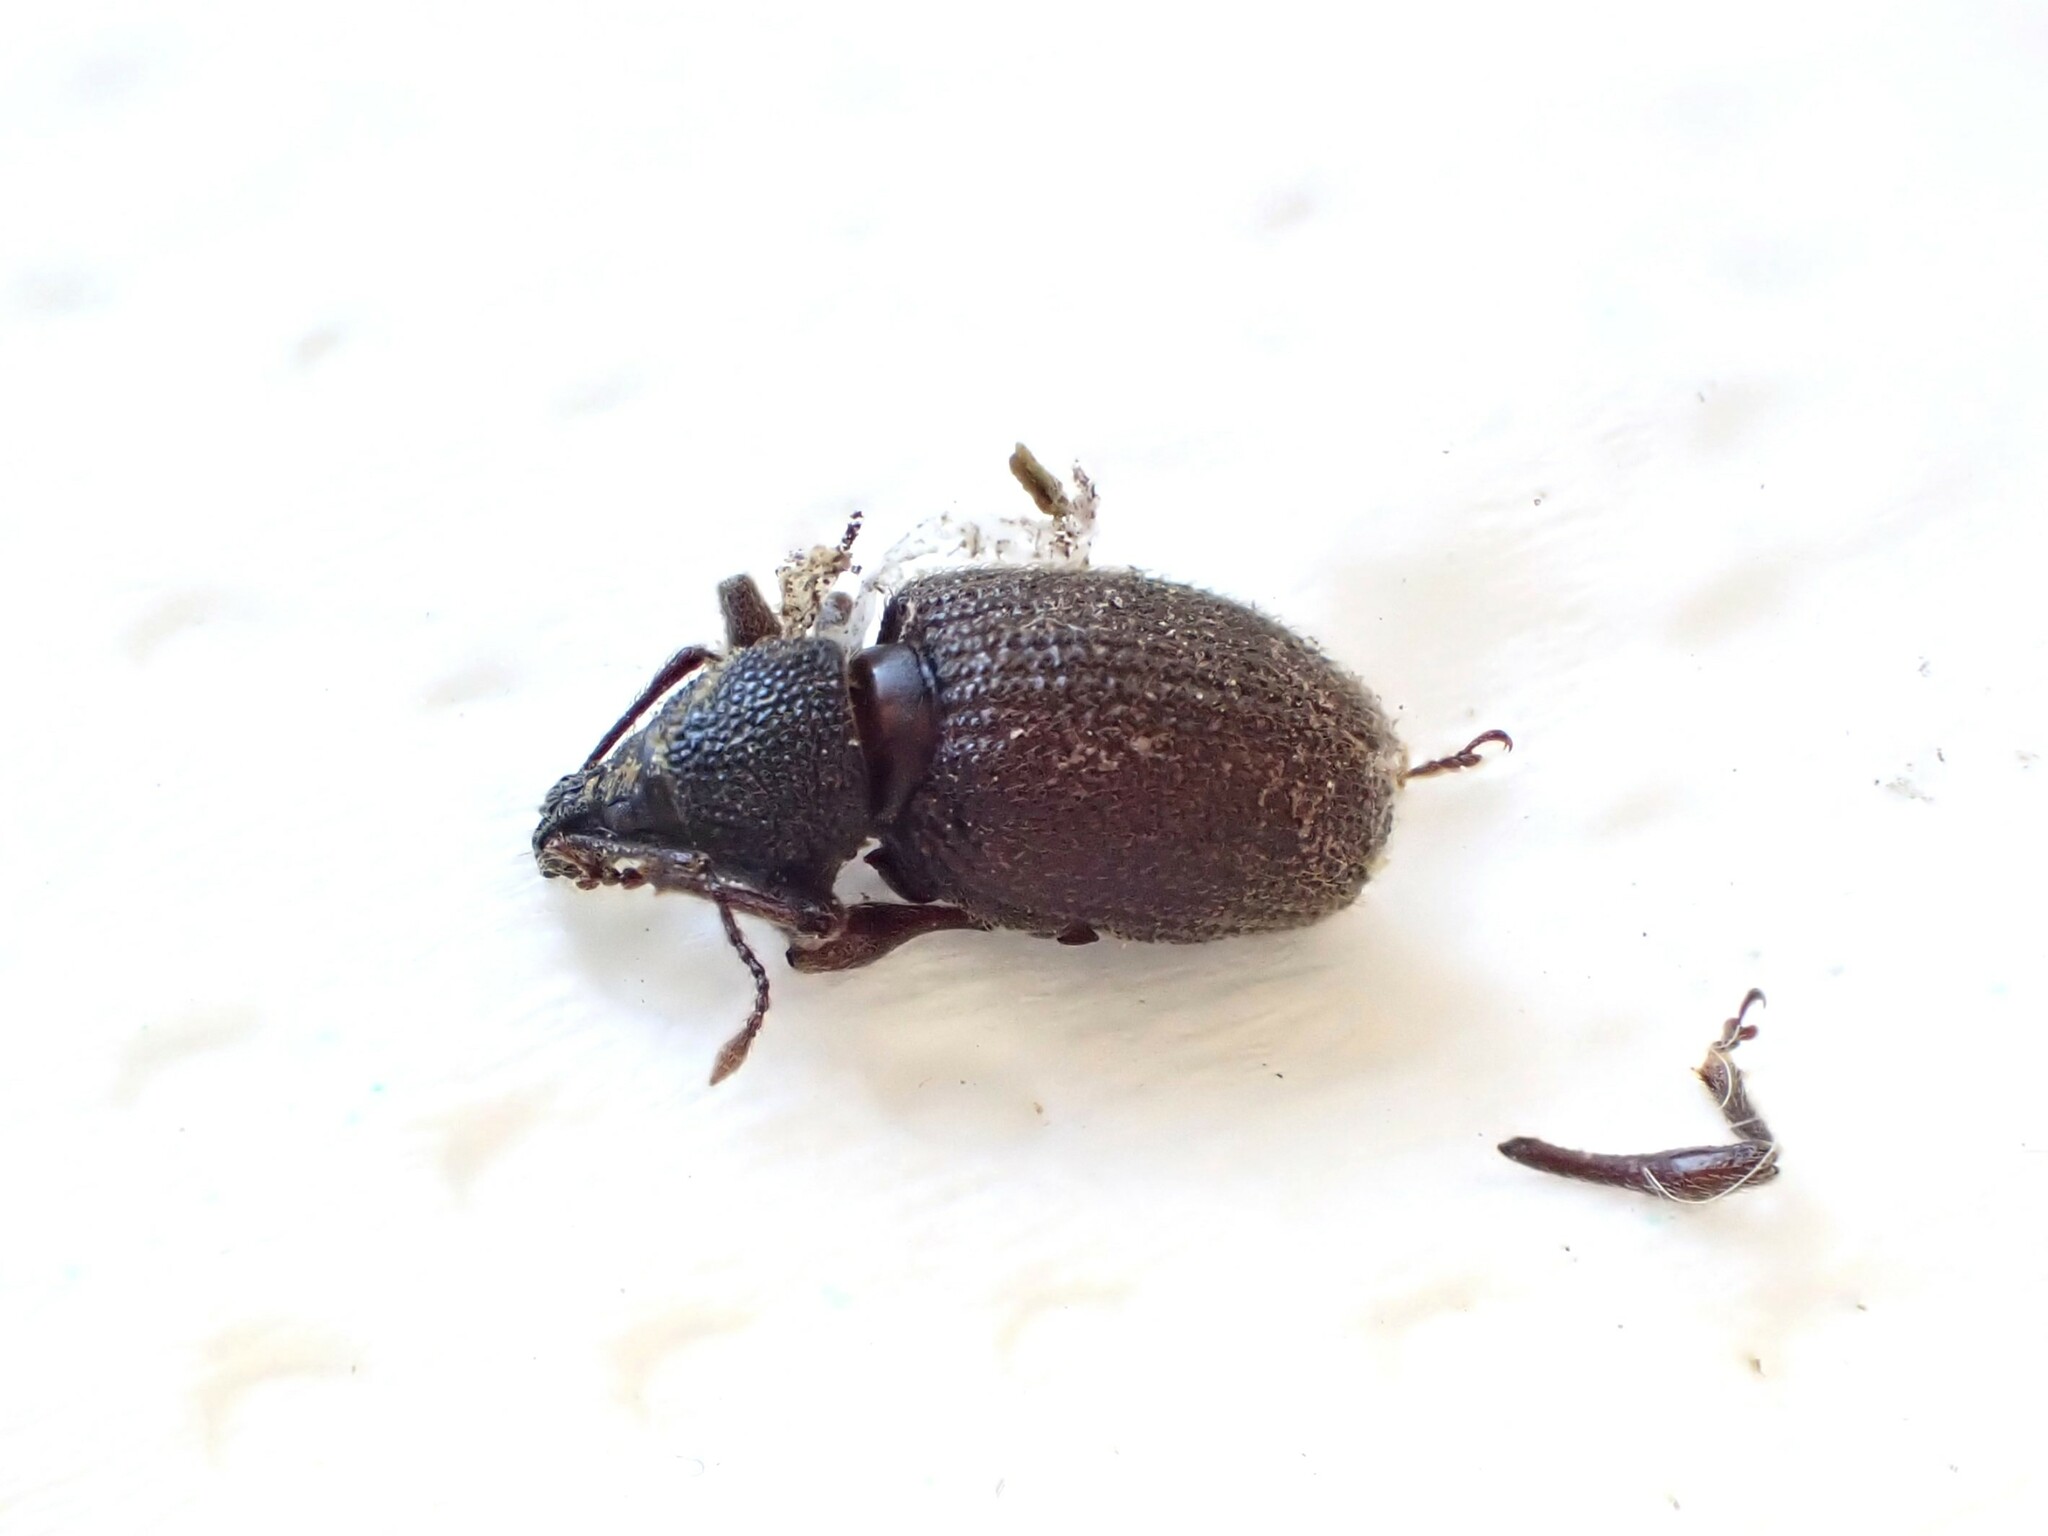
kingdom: Animalia
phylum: Arthropoda
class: Insecta
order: Coleoptera
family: Curculionidae
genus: Otiorhynchus
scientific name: Otiorhynchus rugosostriatus
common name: Weevil
